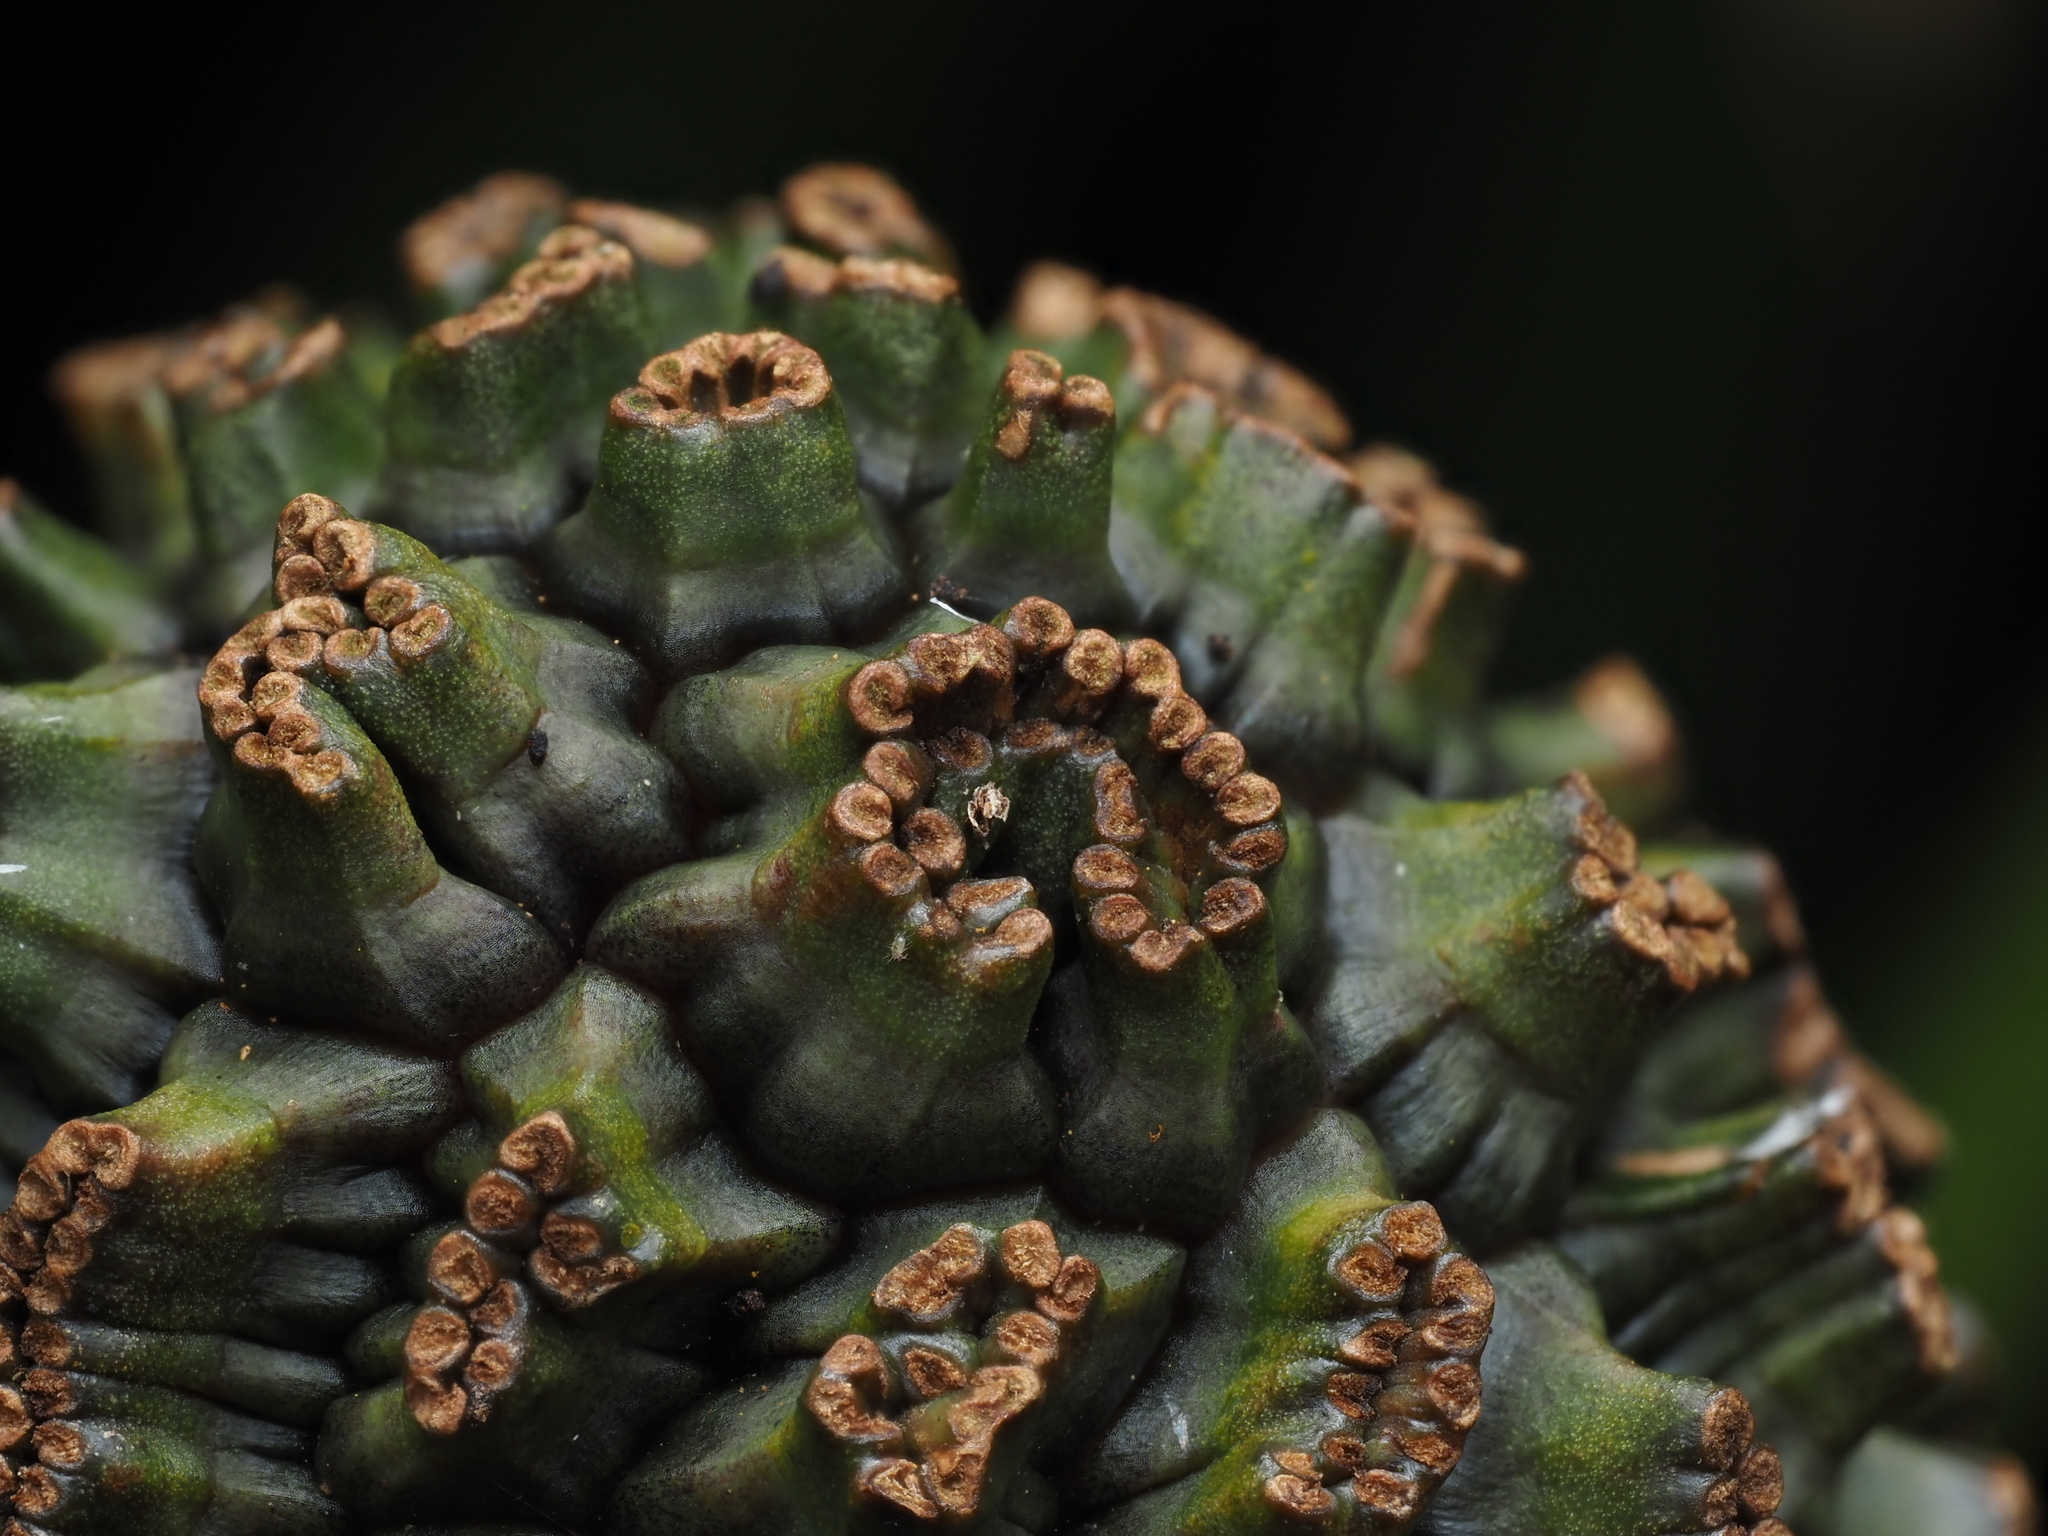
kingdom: Plantae
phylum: Tracheophyta
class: Liliopsida
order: Pandanales
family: Pandanaceae
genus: Freycinetia
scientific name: Freycinetia banksii
